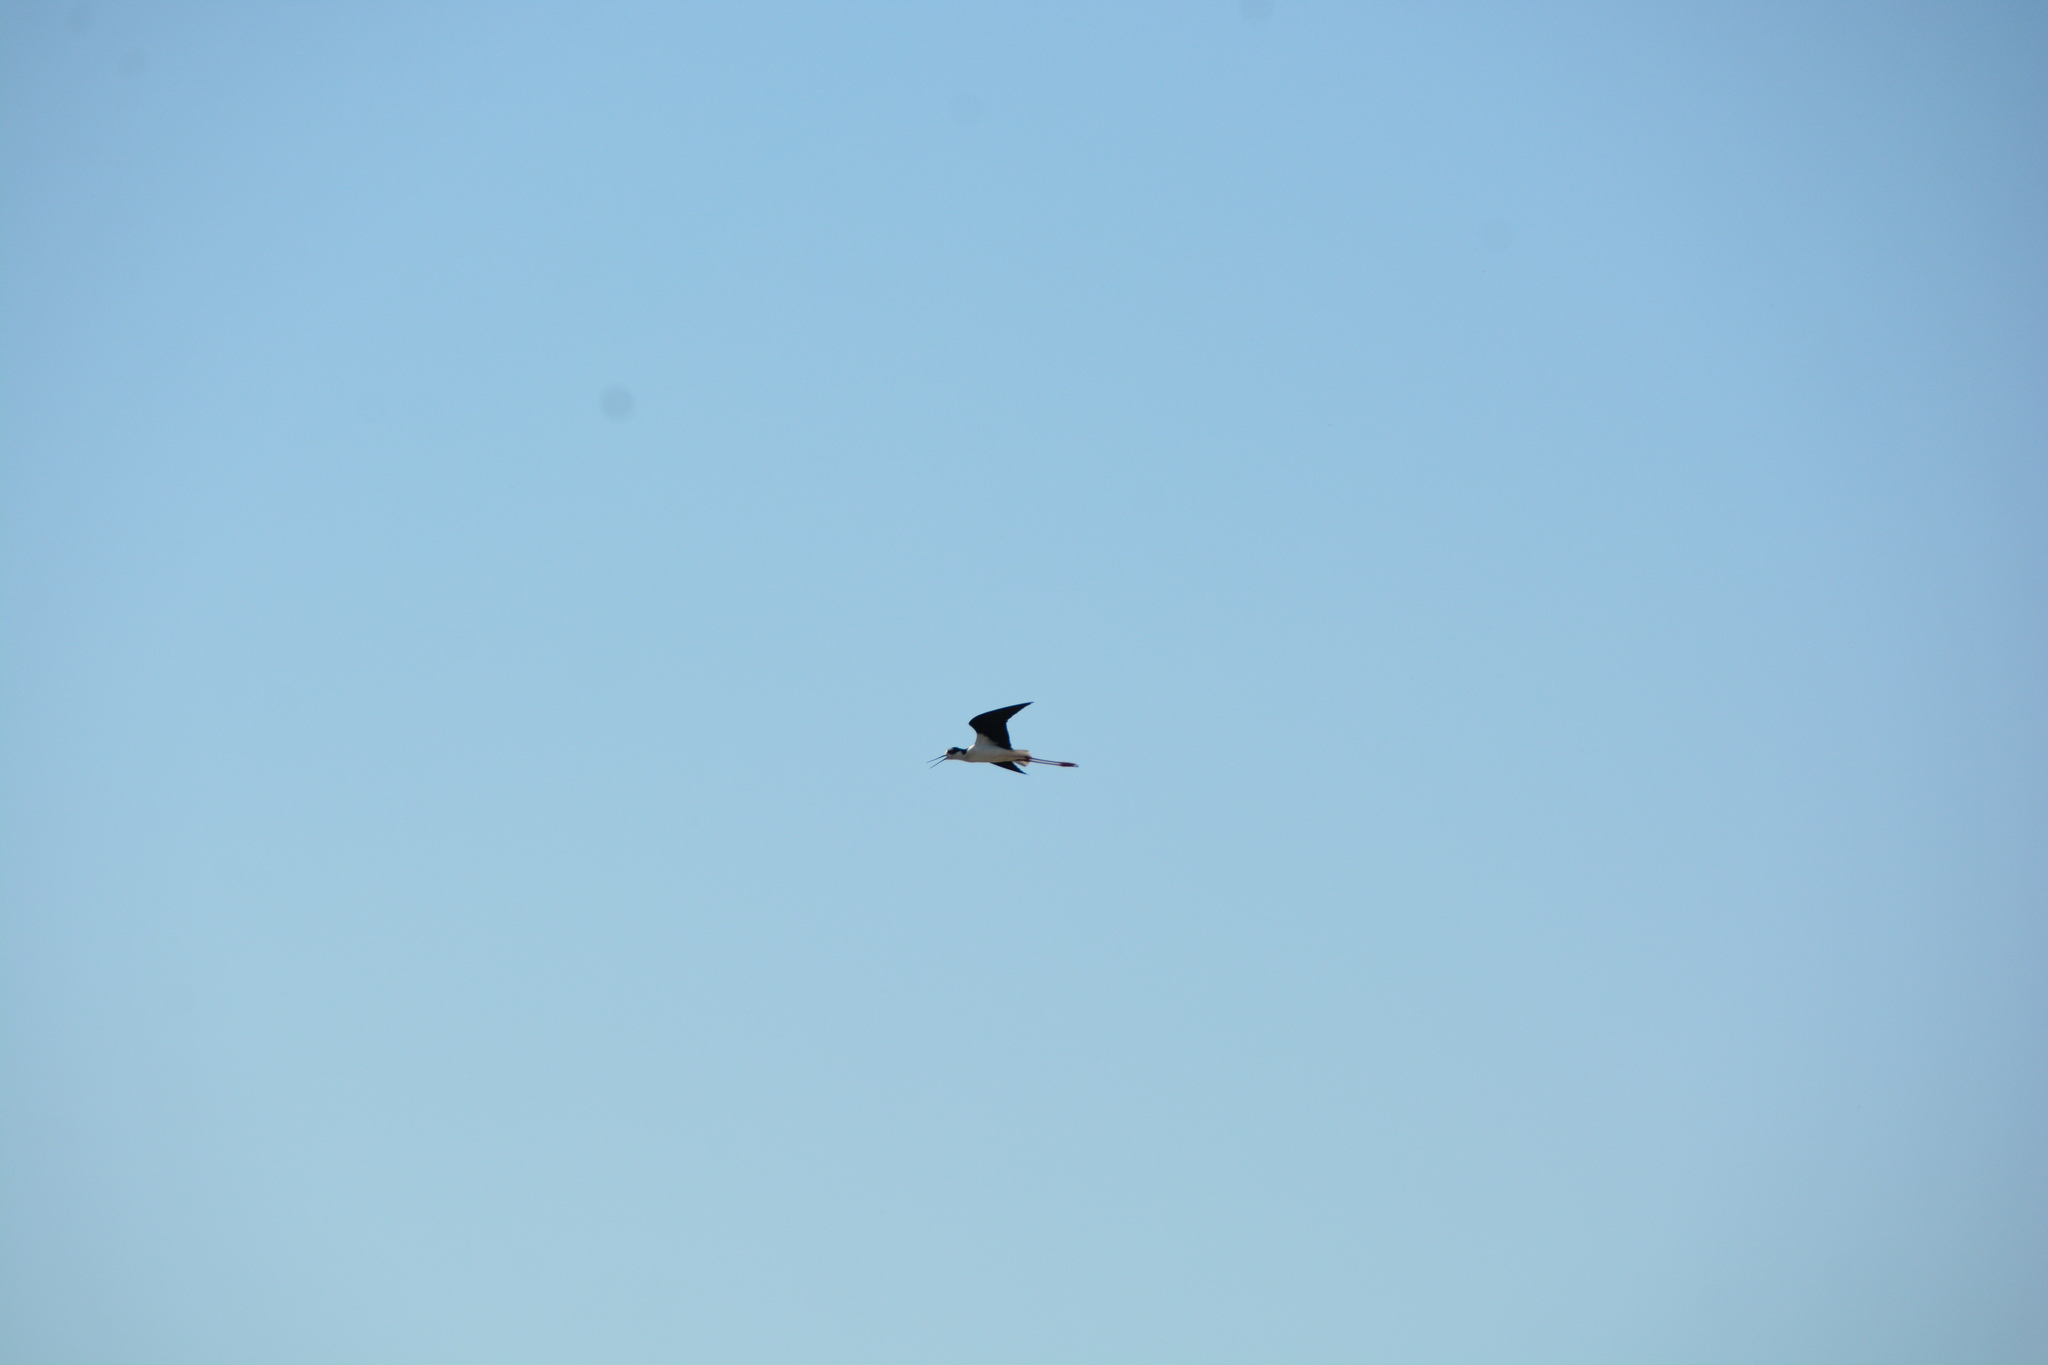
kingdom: Animalia
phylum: Chordata
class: Aves
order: Charadriiformes
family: Recurvirostridae
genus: Himantopus
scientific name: Himantopus mexicanus
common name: Black-necked stilt
